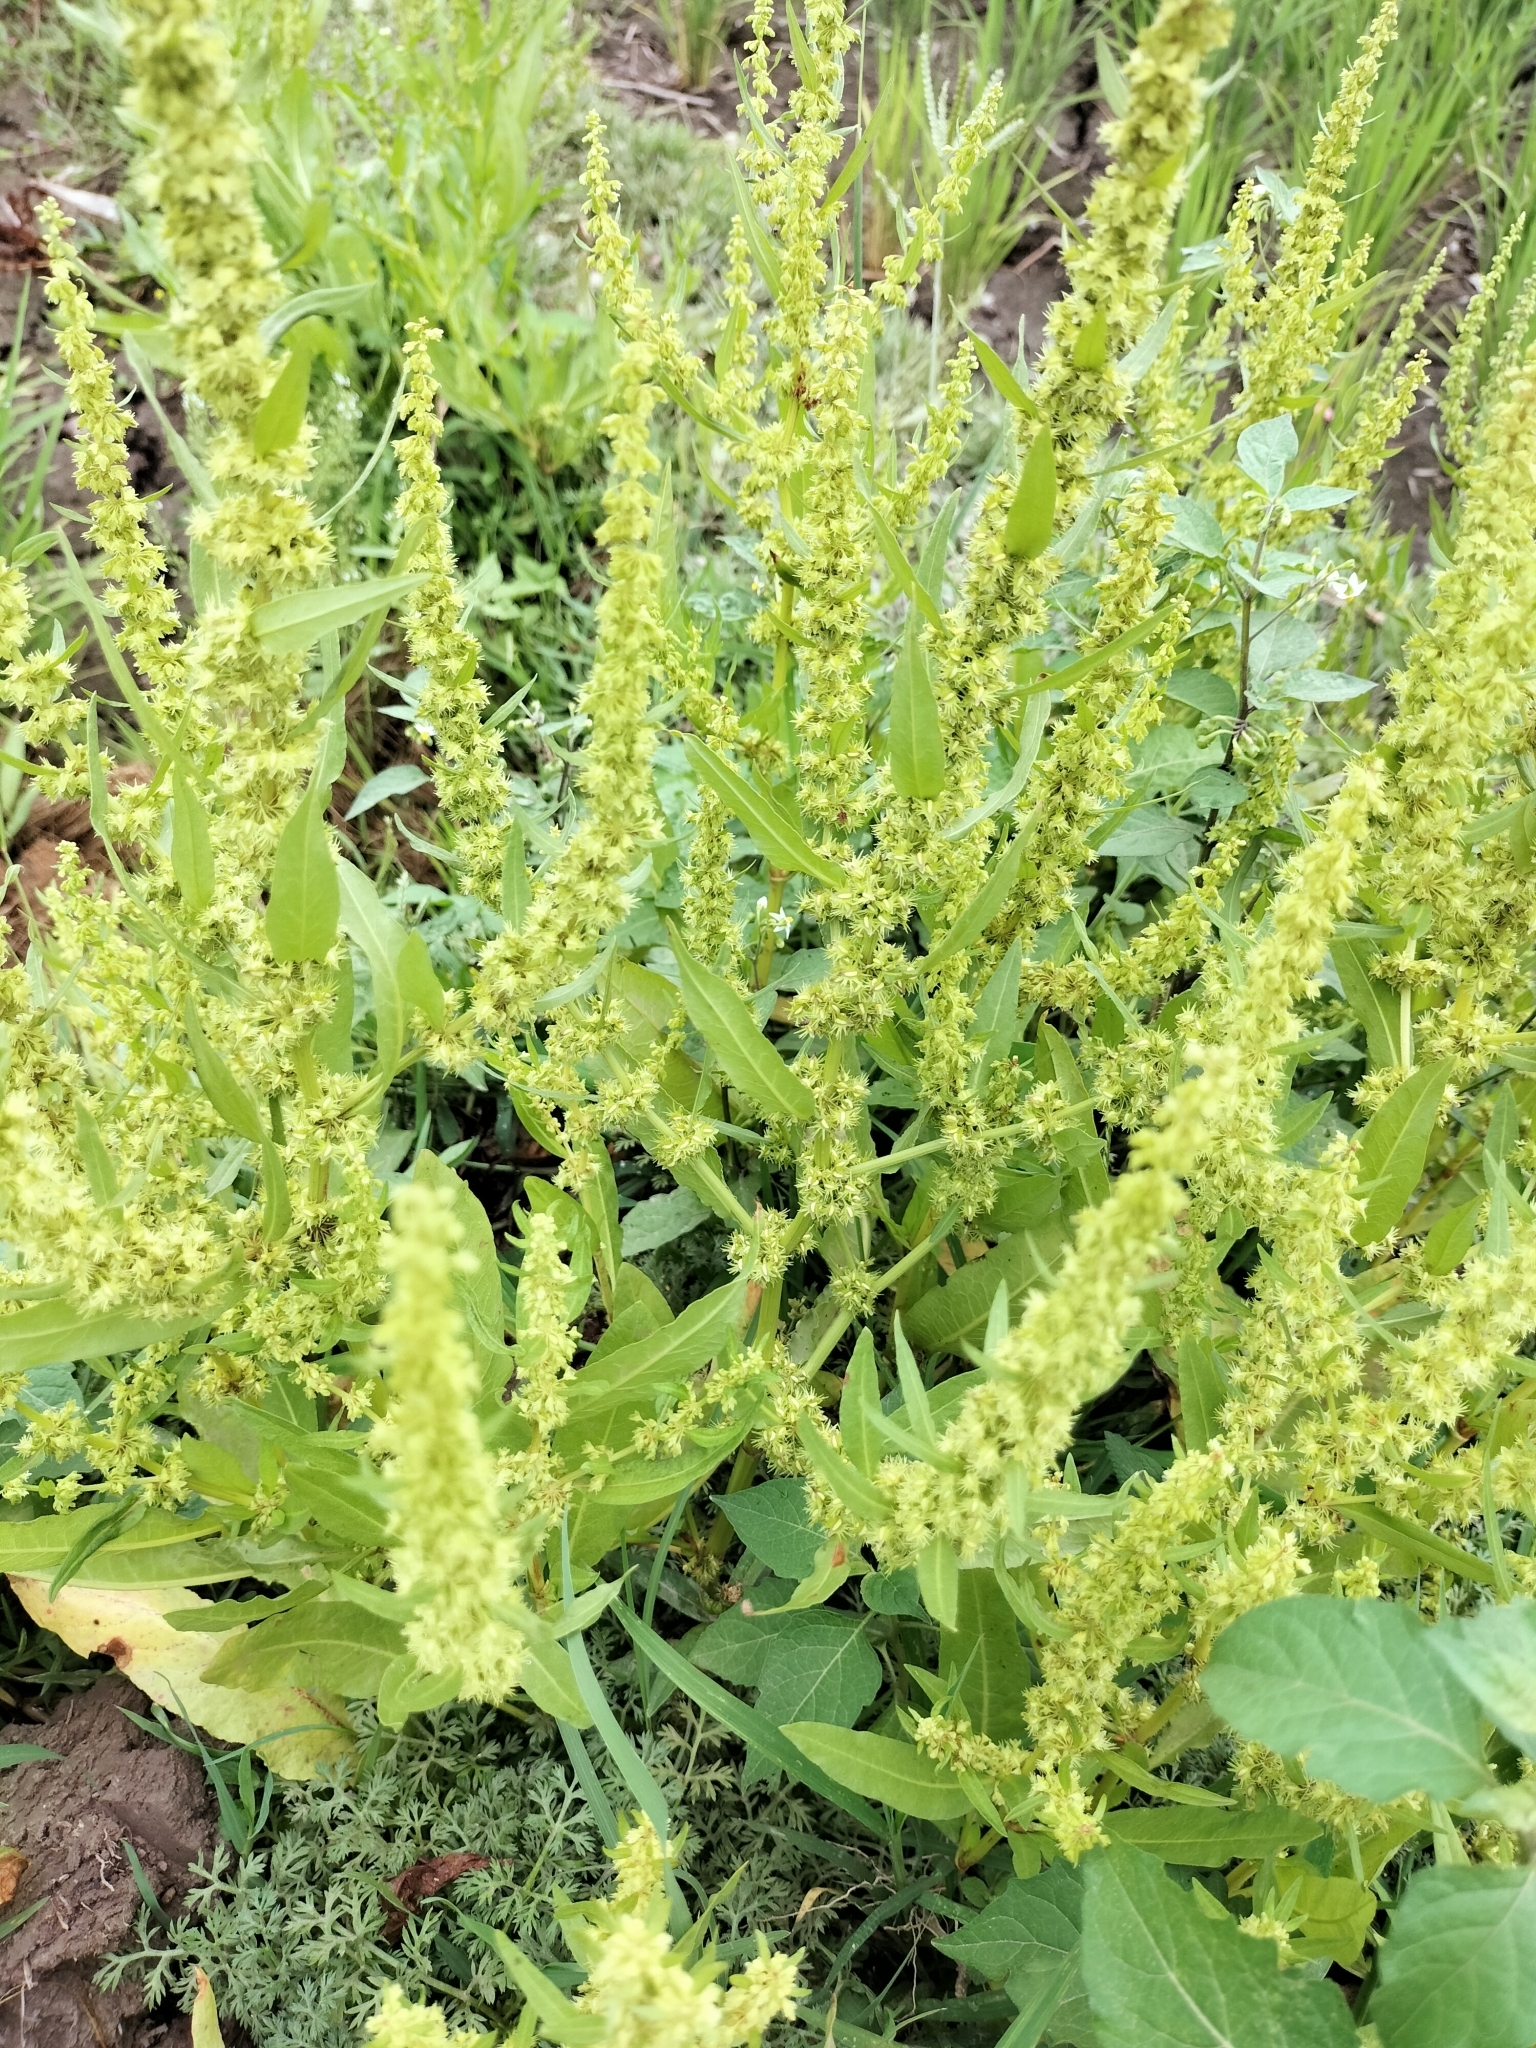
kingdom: Plantae
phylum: Tracheophyta
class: Magnoliopsida
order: Caryophyllales
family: Polygonaceae
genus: Rumex
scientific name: Rumex dentatus
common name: Toothed dock
